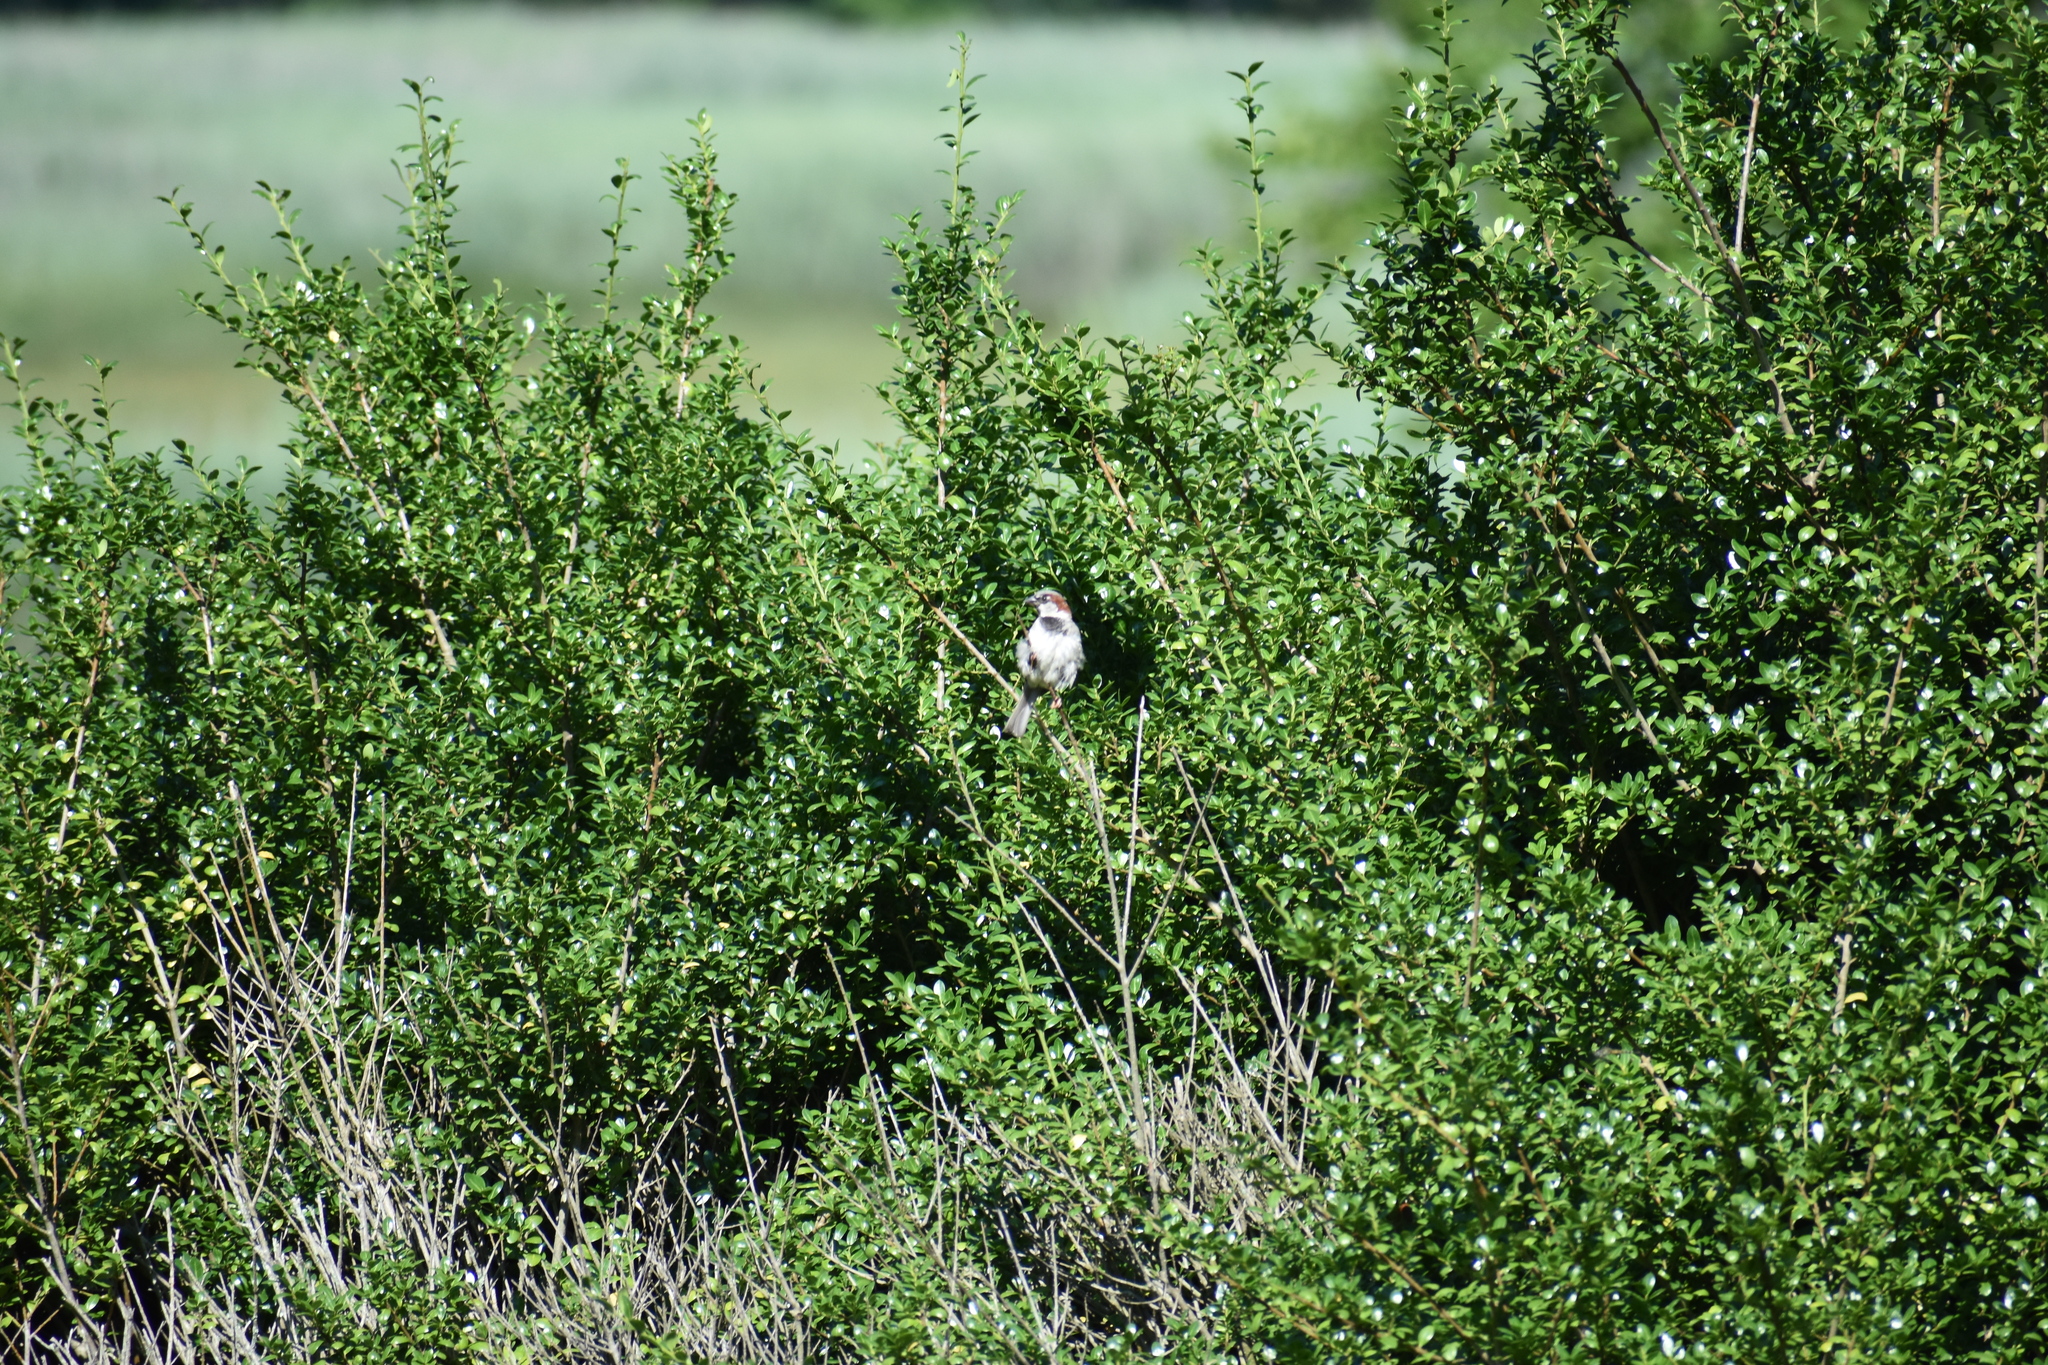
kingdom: Animalia
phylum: Chordata
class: Aves
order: Passeriformes
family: Passeridae
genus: Passer
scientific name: Passer domesticus
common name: House sparrow
